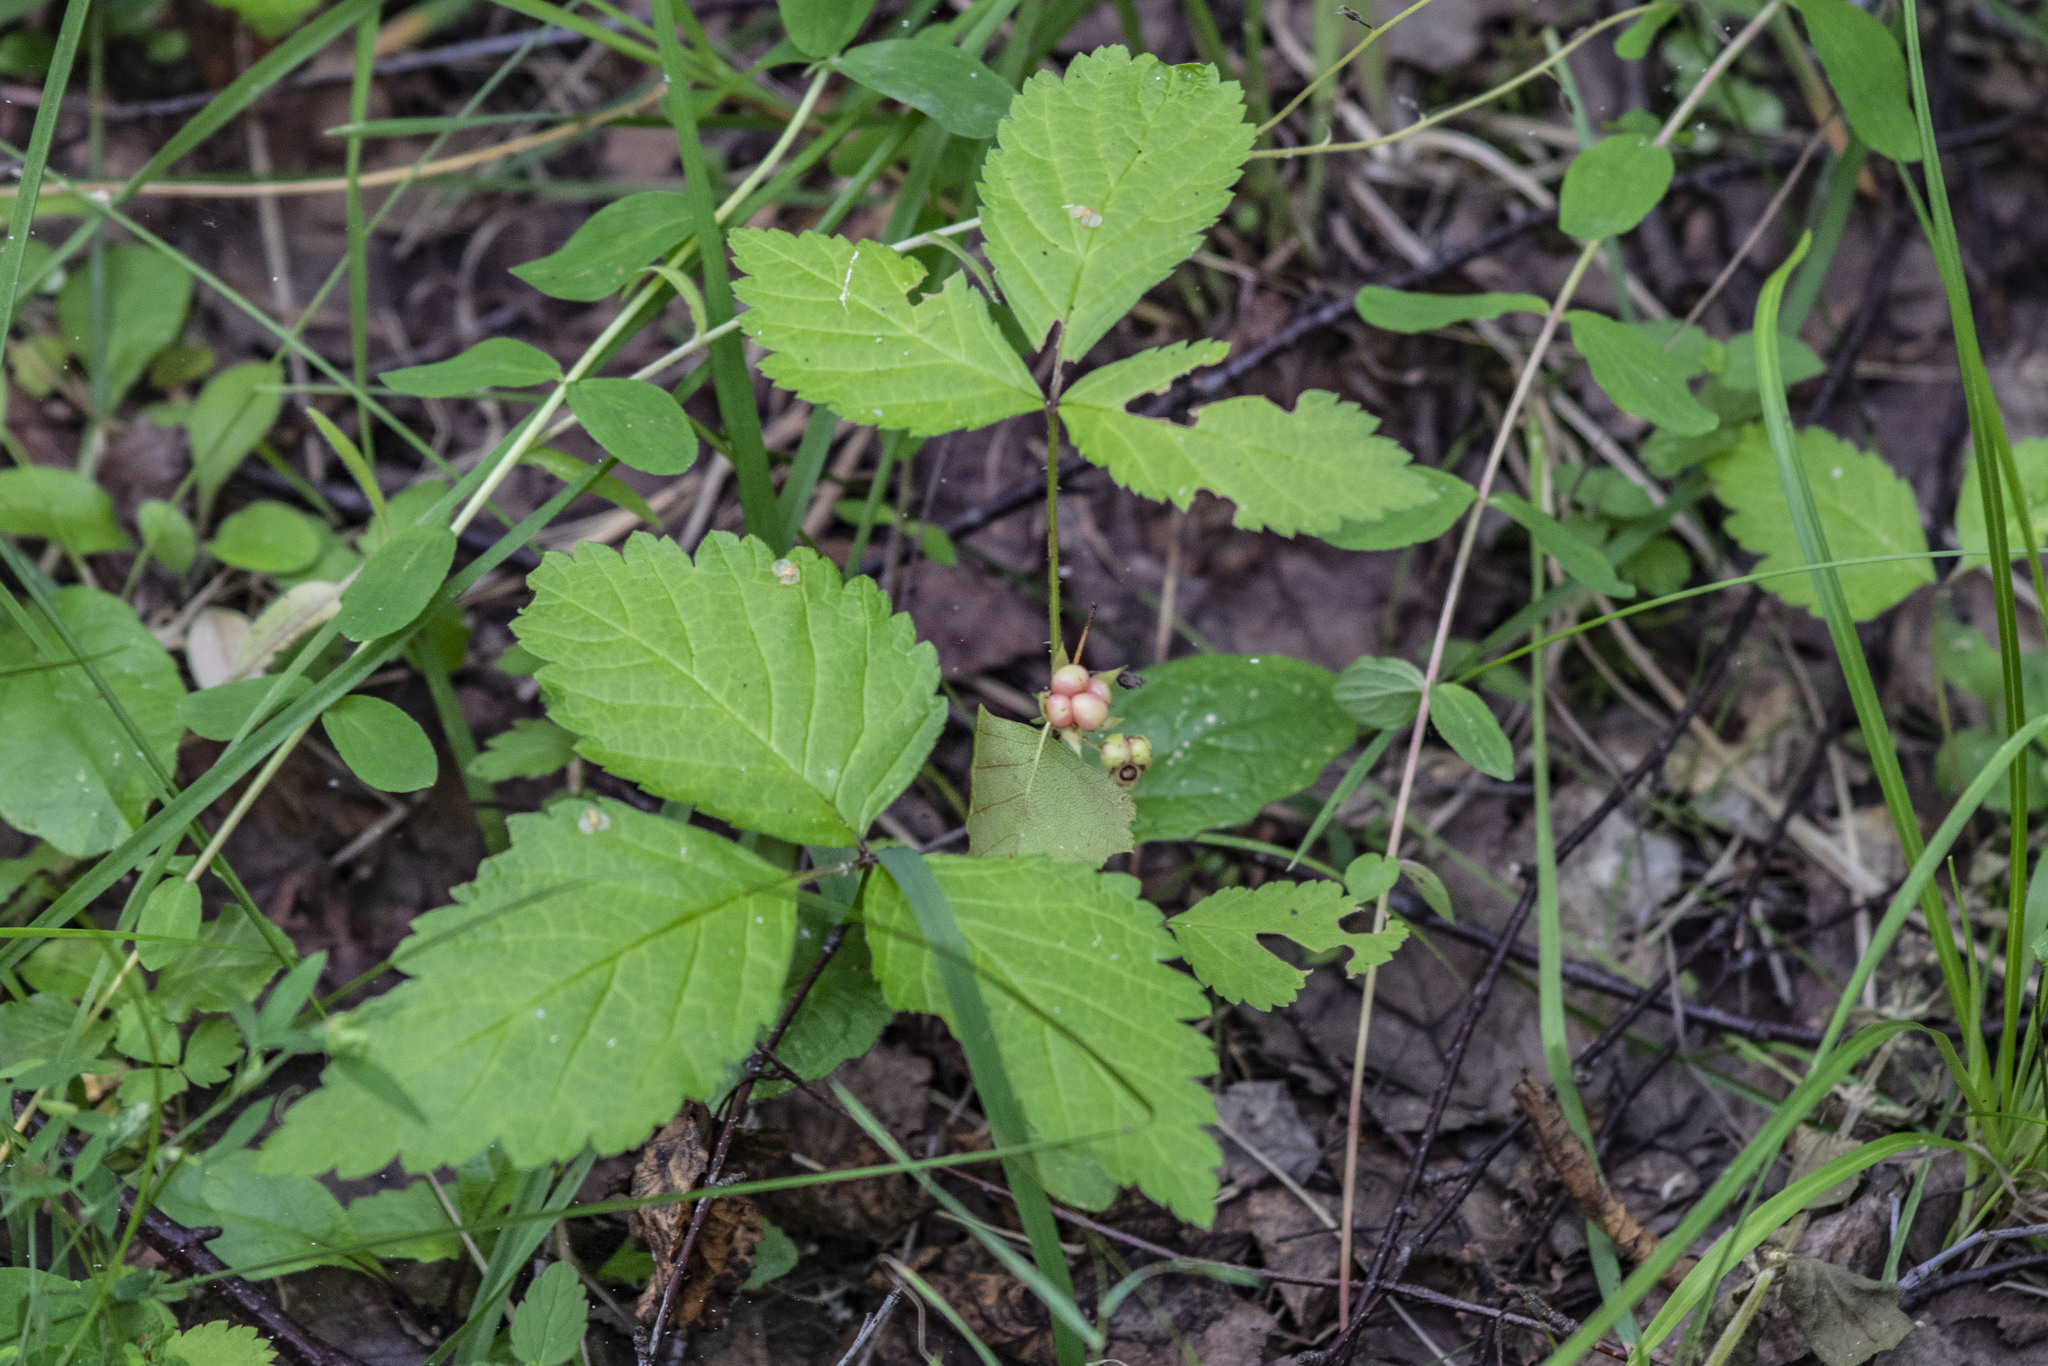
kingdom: Plantae
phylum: Tracheophyta
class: Magnoliopsida
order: Rosales
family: Rosaceae
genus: Rubus
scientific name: Rubus saxatilis
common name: Stone bramble
